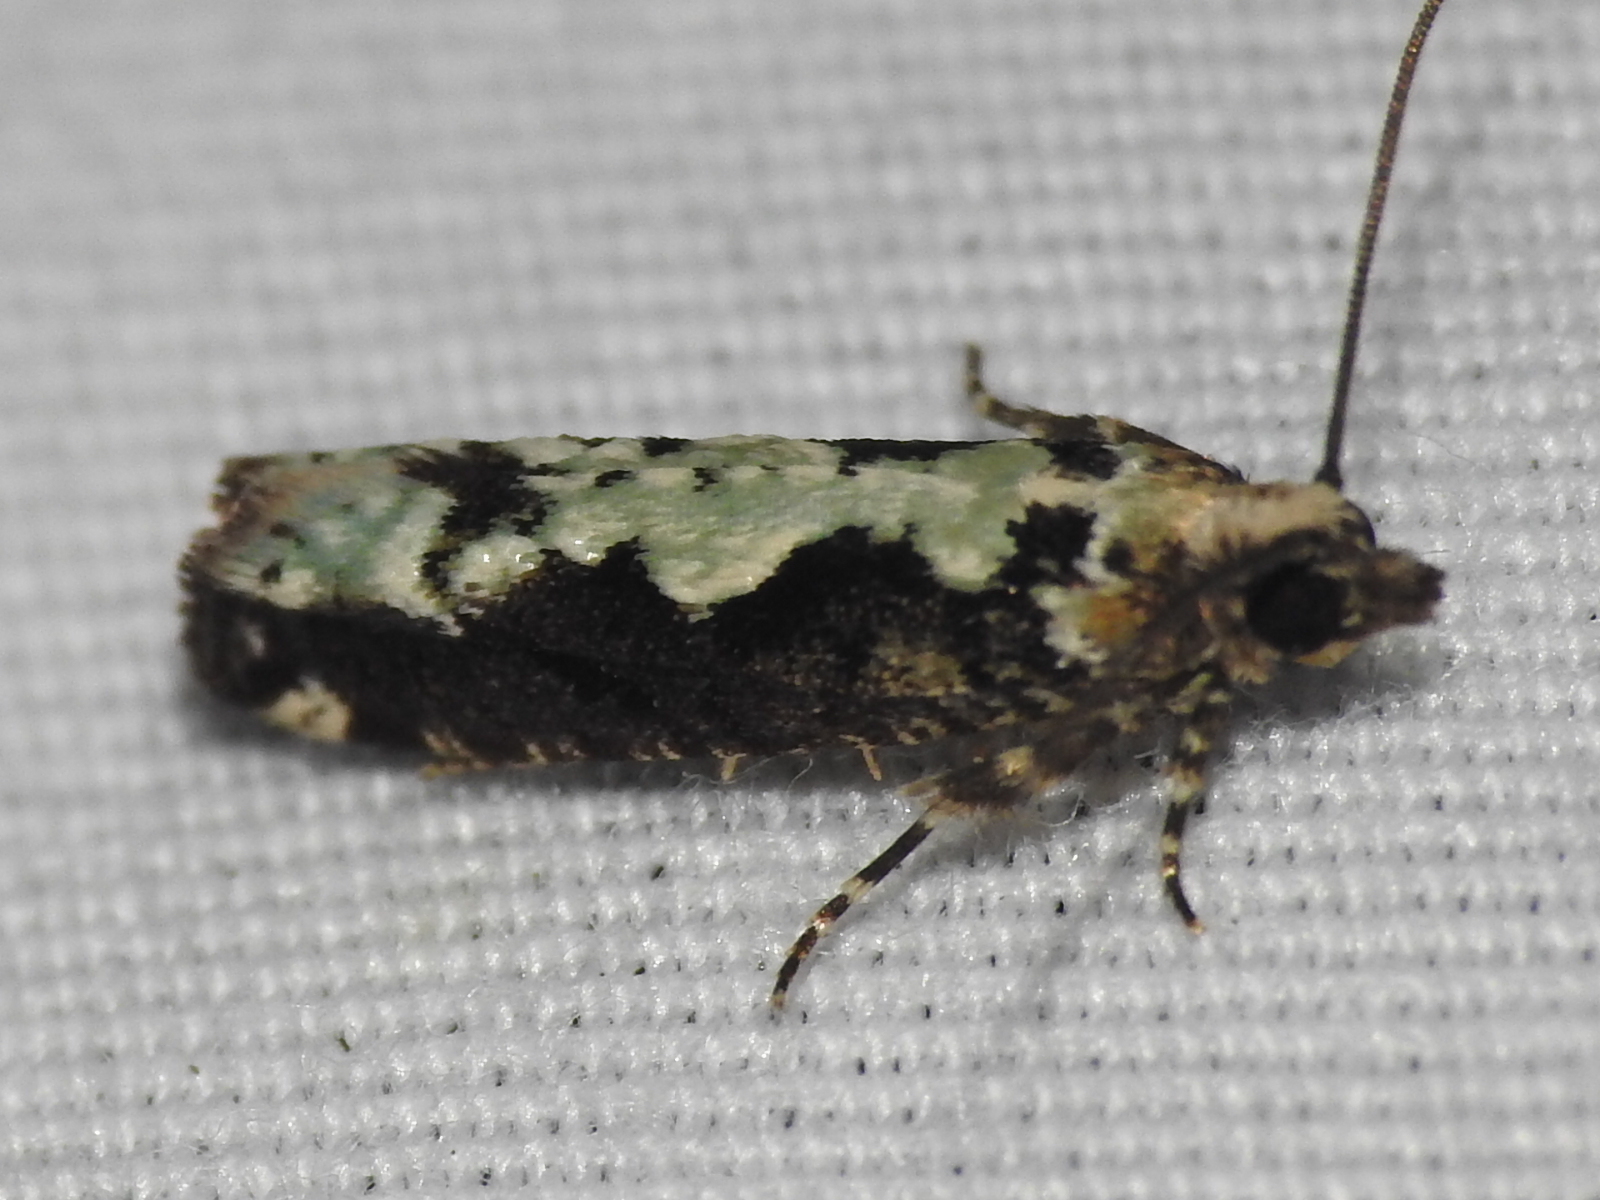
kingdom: Animalia
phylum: Arthropoda
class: Insecta
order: Lepidoptera
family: Tortricidae
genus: Chimoptesis
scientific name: Chimoptesis pennsylvaniana
